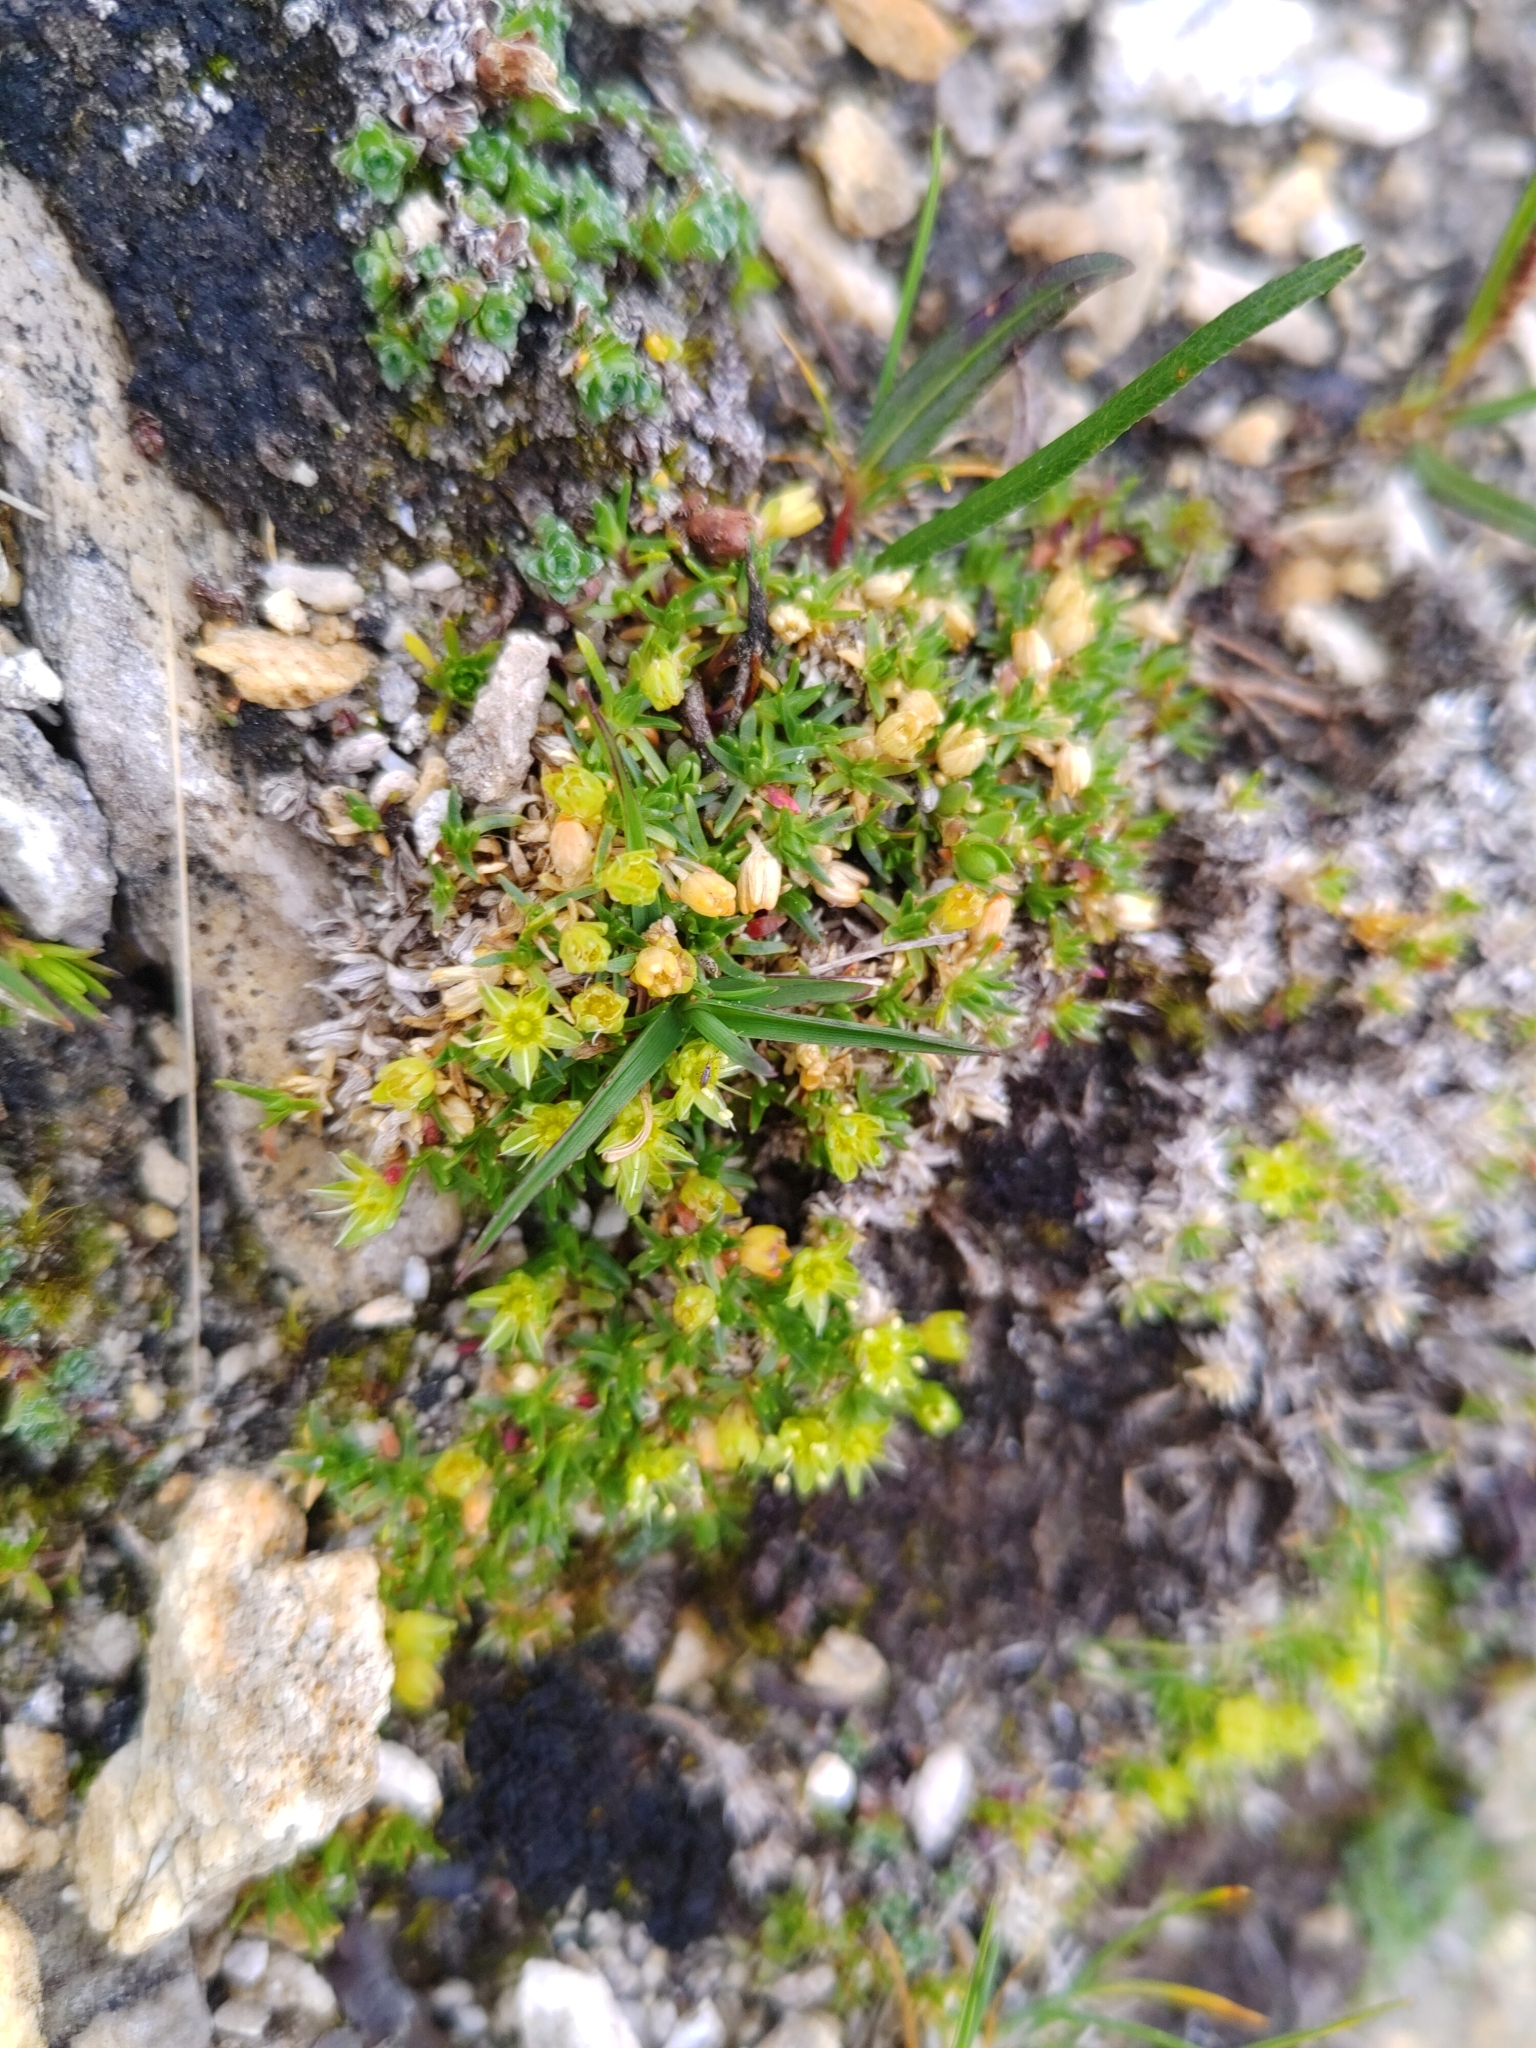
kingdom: Plantae
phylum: Tracheophyta
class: Magnoliopsida
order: Caryophyllales
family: Caryophyllaceae
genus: Cherleria
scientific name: Cherleria sedoides
